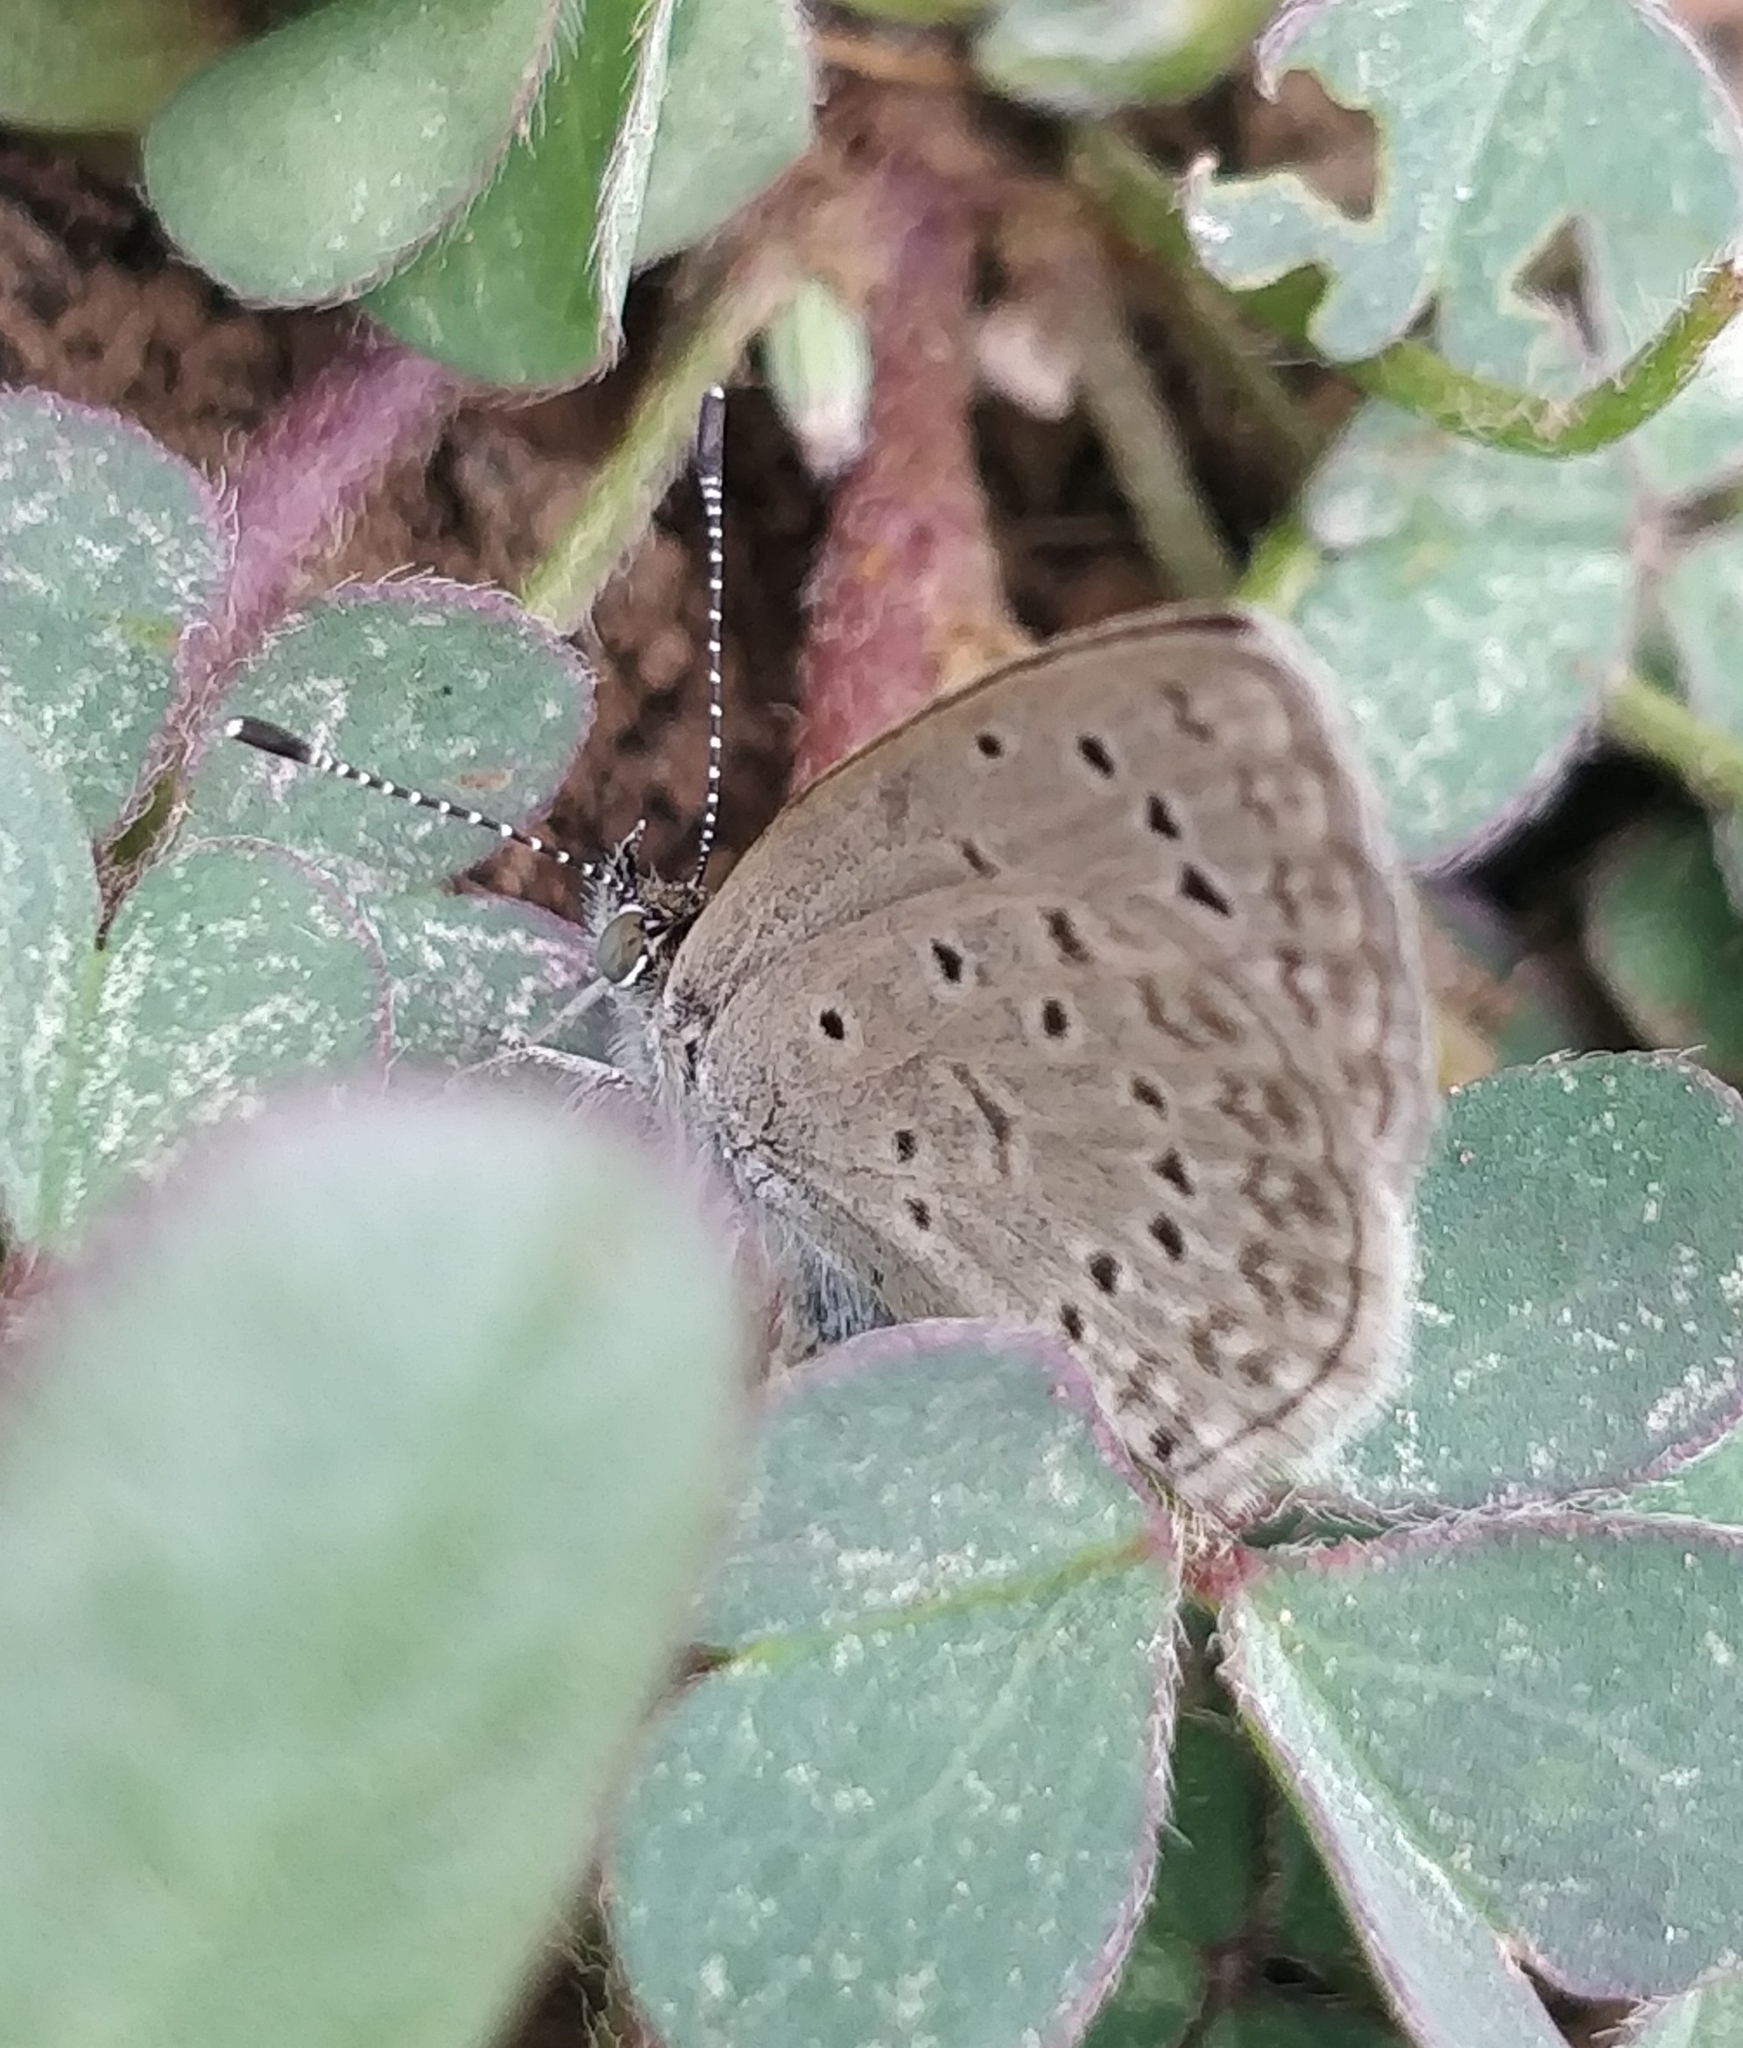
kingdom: Animalia
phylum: Arthropoda
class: Insecta
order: Lepidoptera
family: Lycaenidae
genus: Zizeeria
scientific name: Zizeeria knysna
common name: African grass blue
